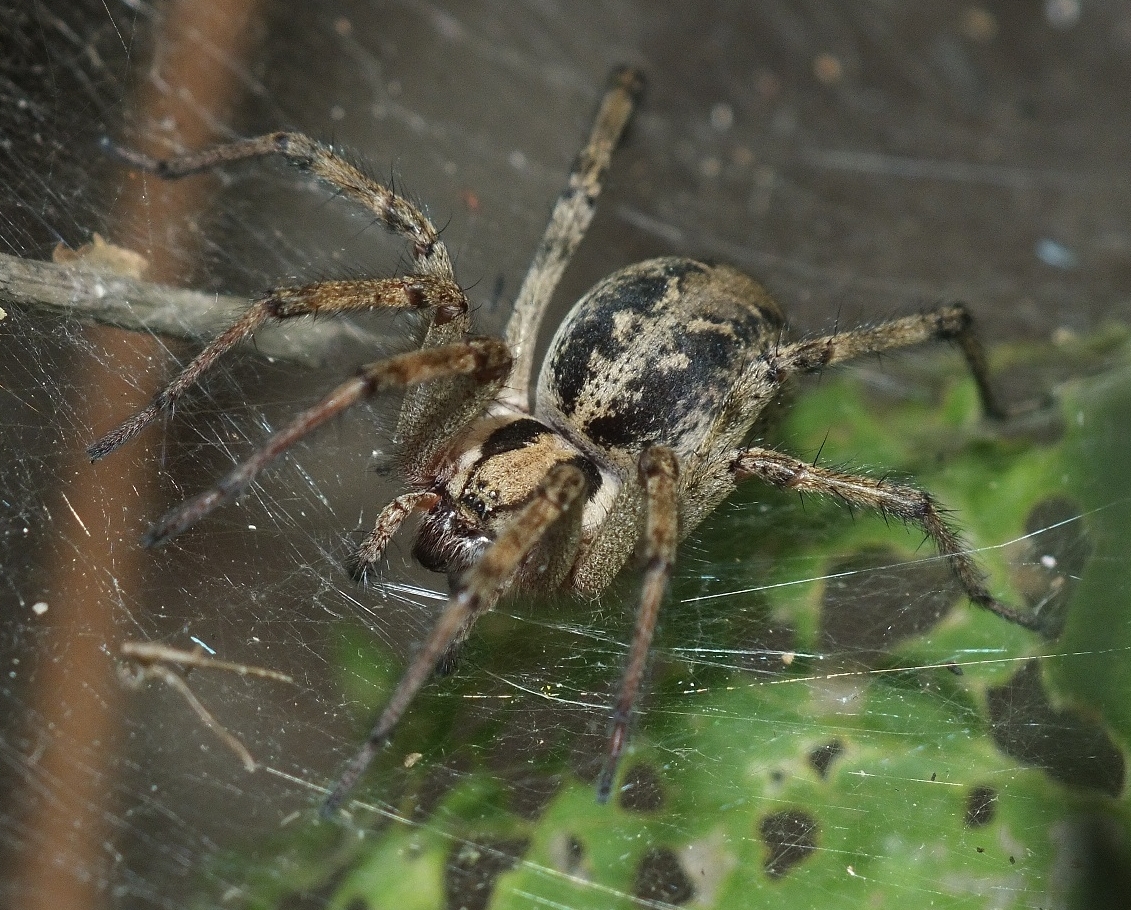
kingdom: Animalia
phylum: Arthropoda
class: Arachnida
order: Araneae
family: Agelenidae
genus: Agelena
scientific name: Agelena labyrinthica
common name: Labyrinth spider
